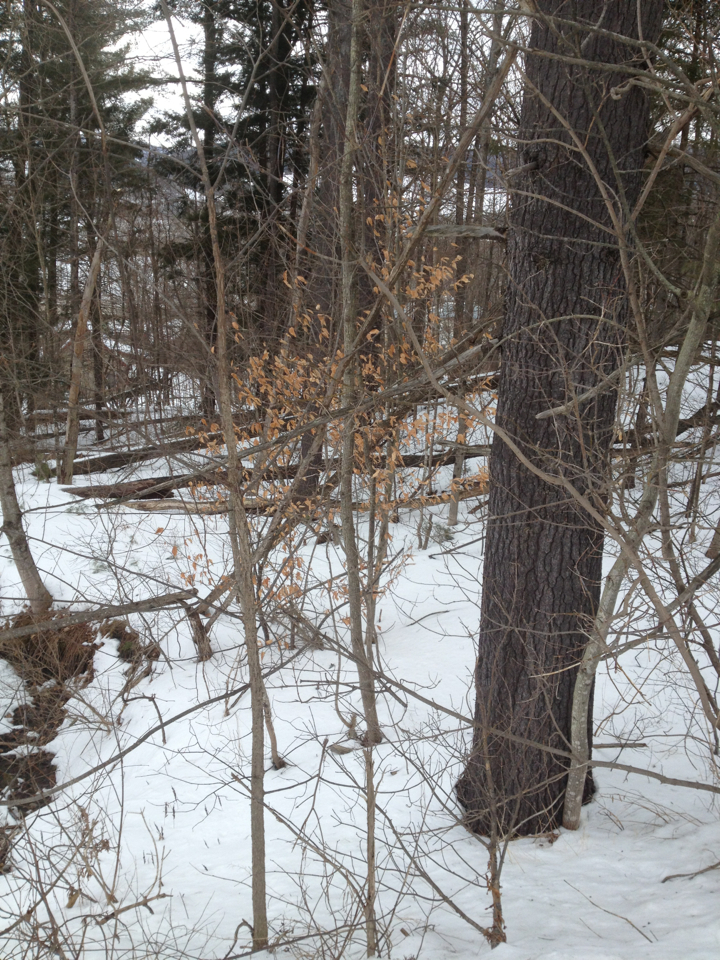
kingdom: Plantae
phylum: Tracheophyta
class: Magnoliopsida
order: Fagales
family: Fagaceae
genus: Fagus
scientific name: Fagus grandifolia
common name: American beech
